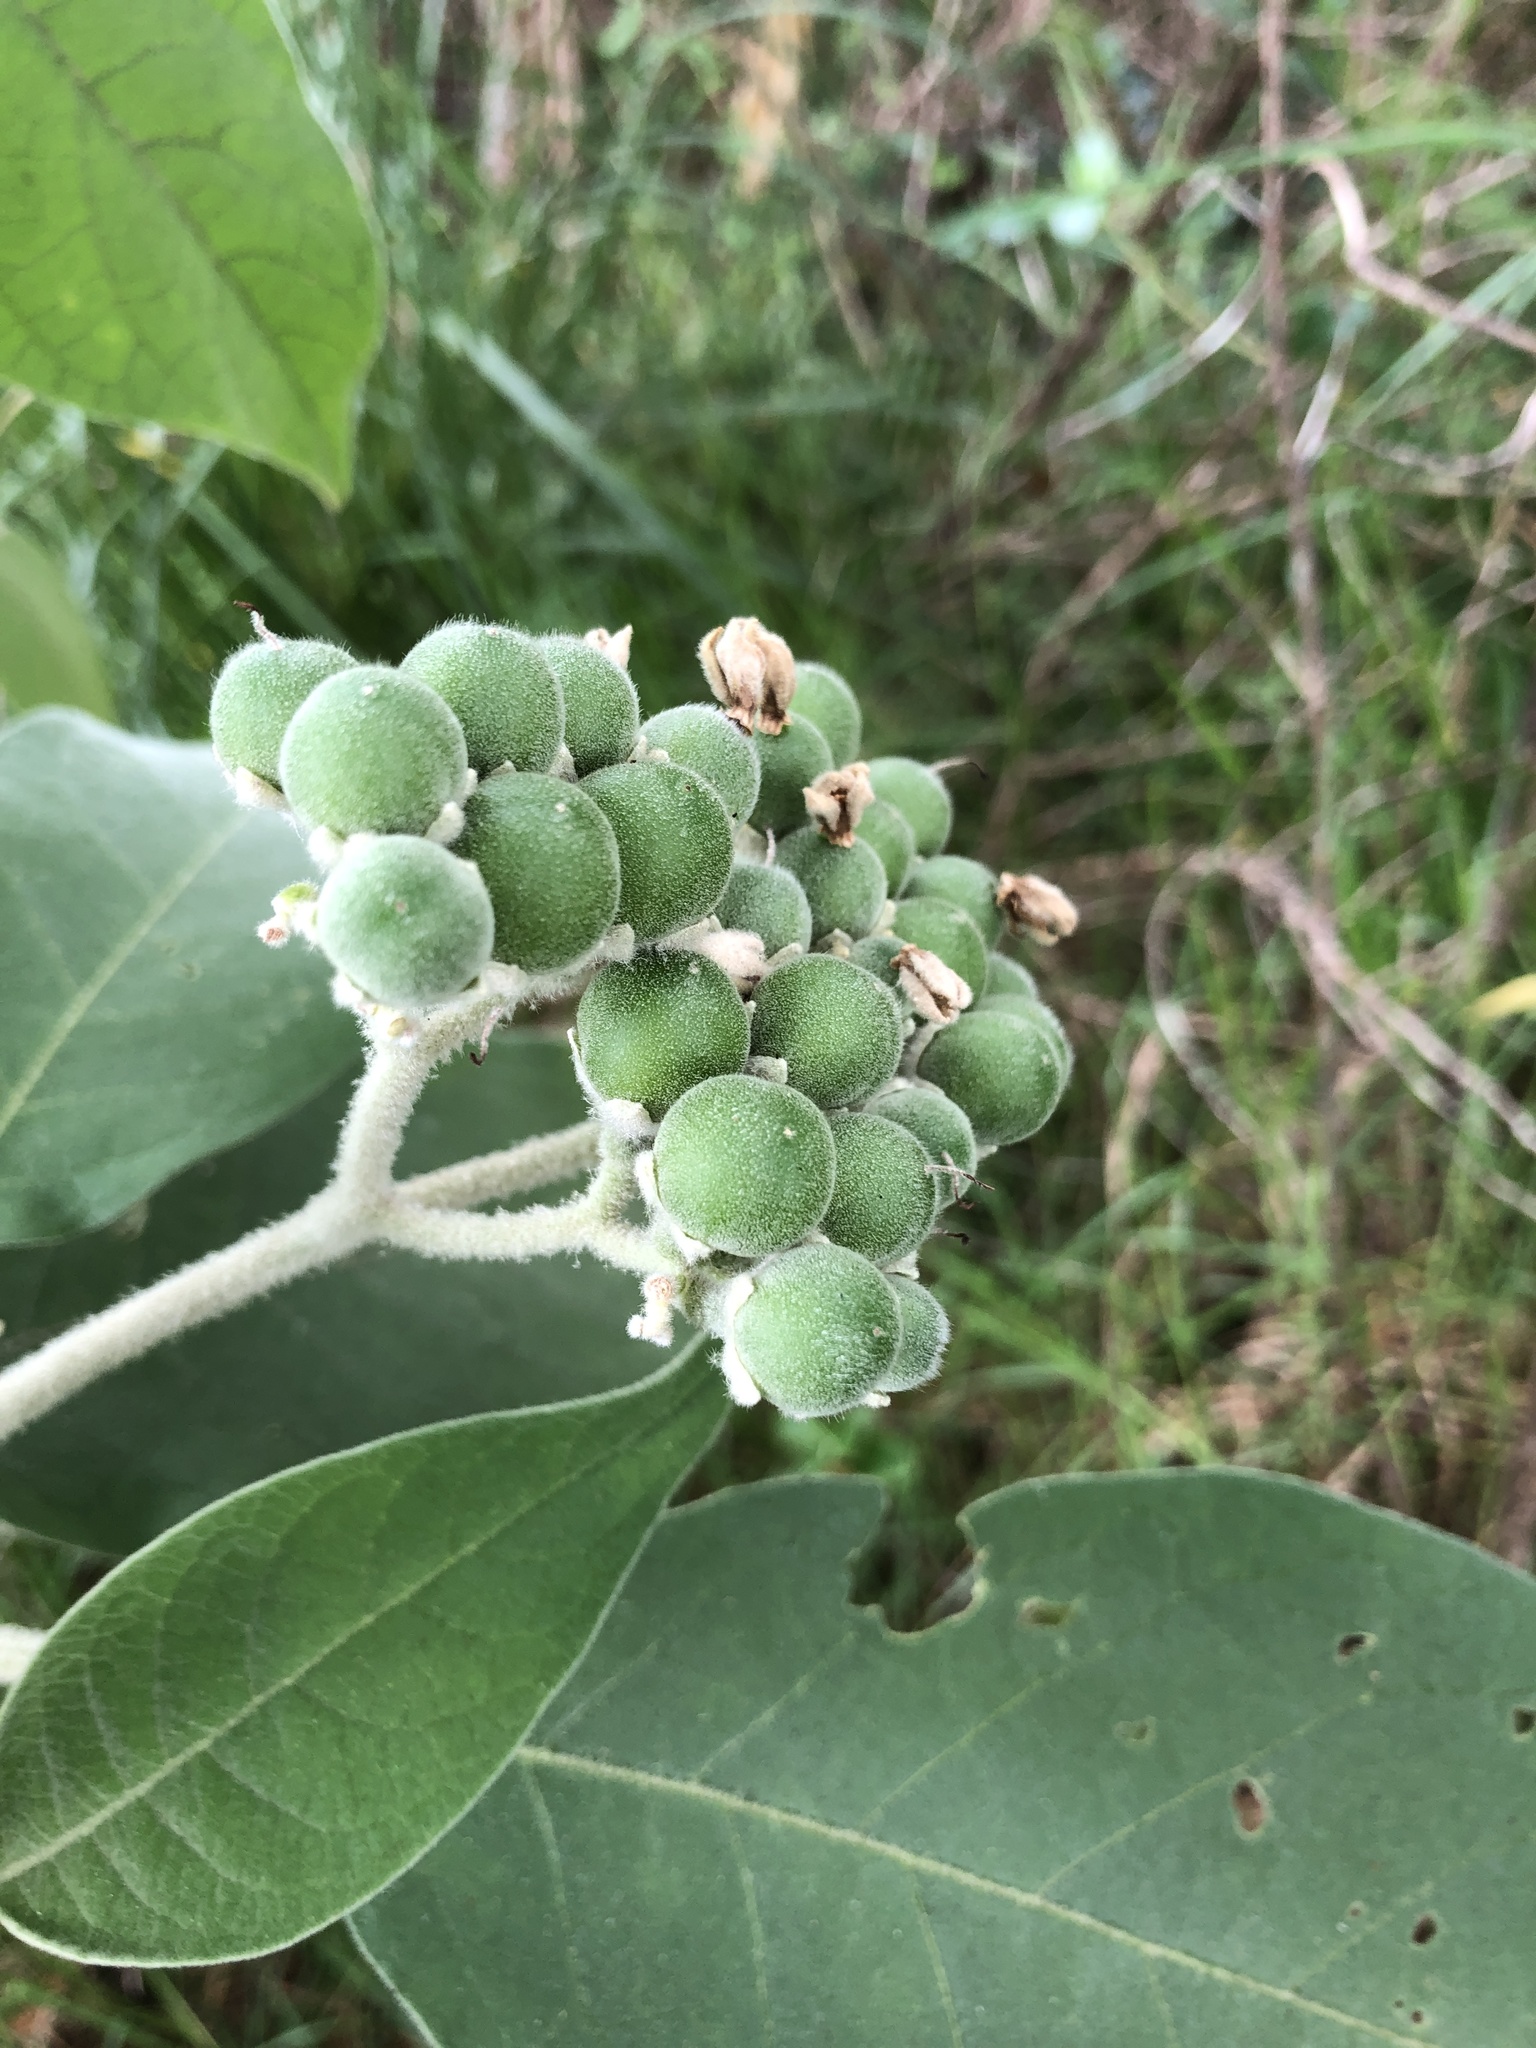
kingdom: Plantae
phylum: Tracheophyta
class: Magnoliopsida
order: Solanales
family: Solanaceae
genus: Solanum
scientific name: Solanum mauritianum
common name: Earleaf nightshade
